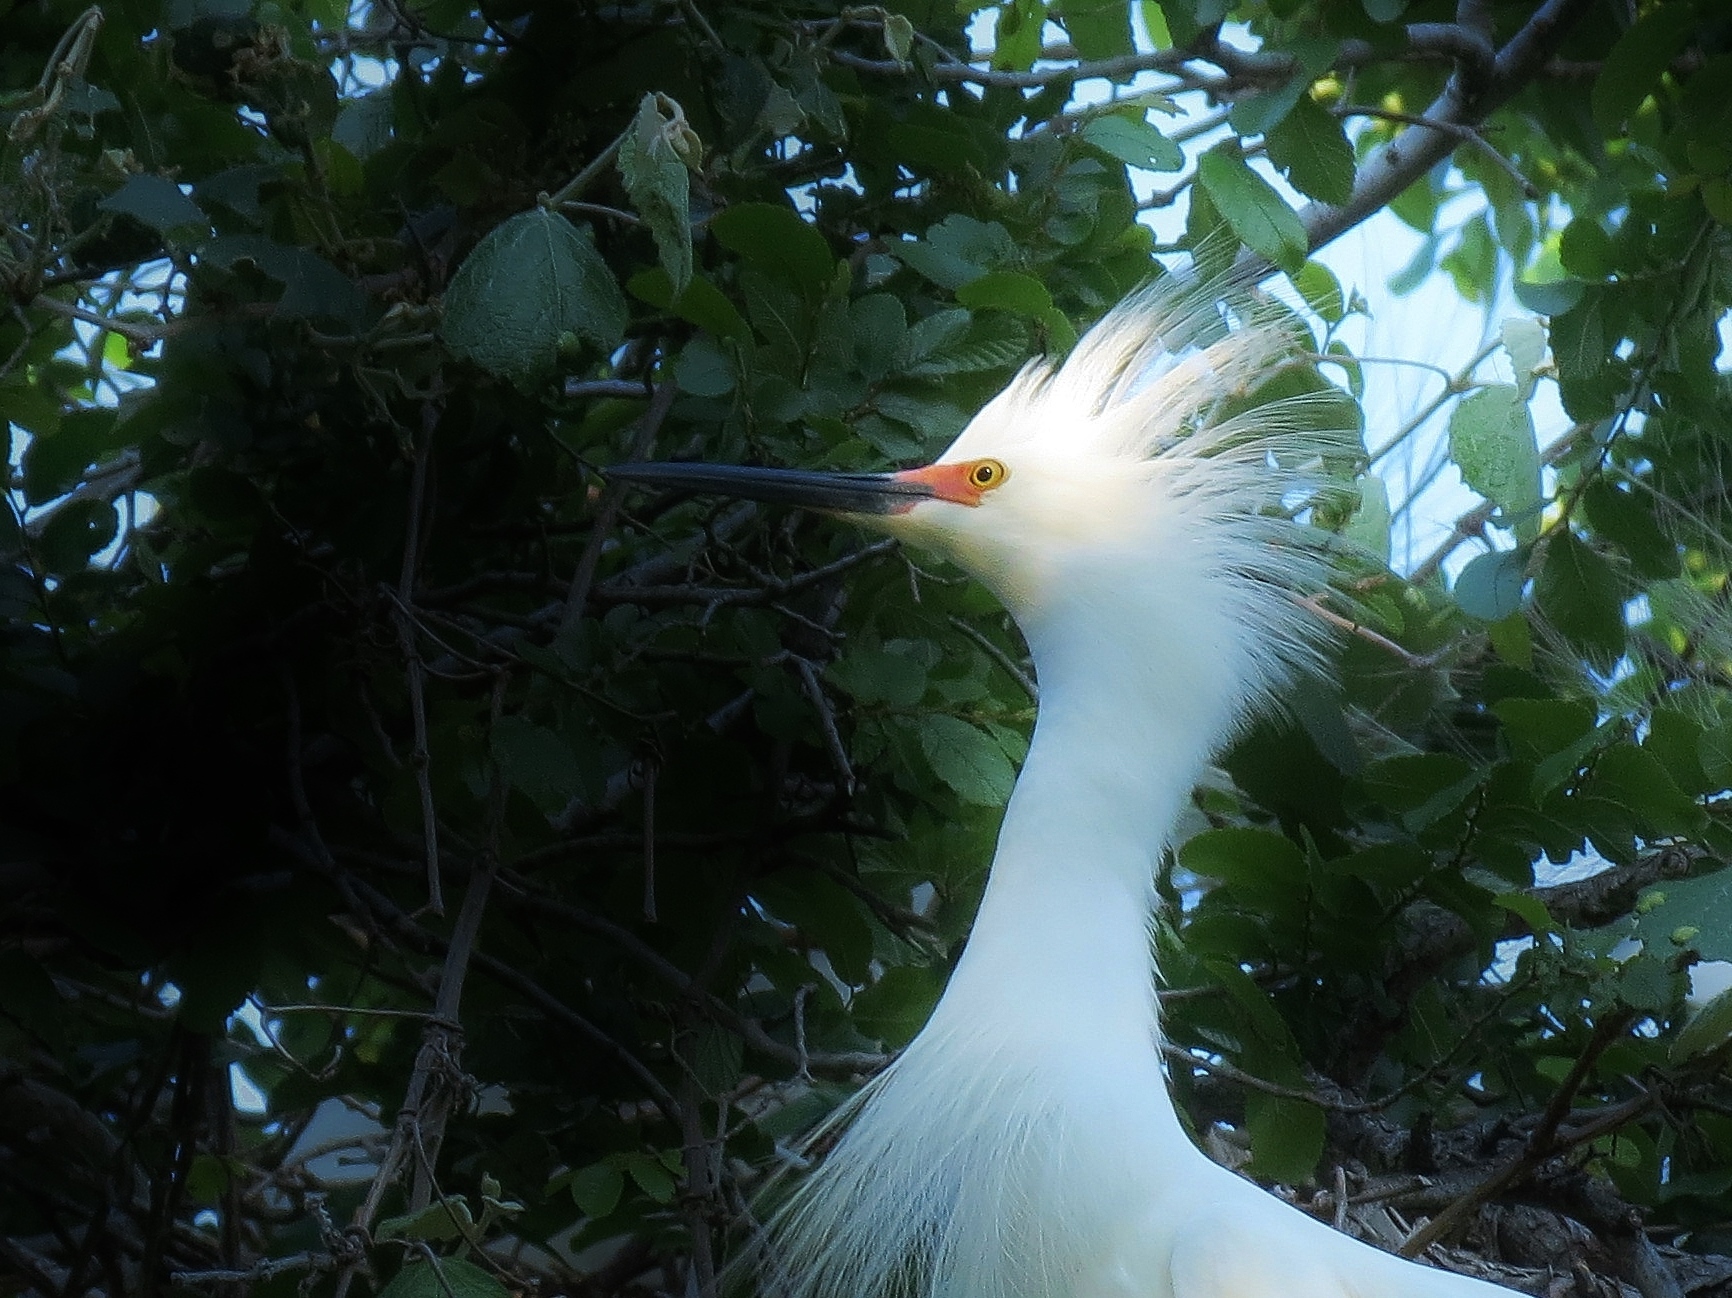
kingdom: Animalia
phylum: Chordata
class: Aves
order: Pelecaniformes
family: Ardeidae
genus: Egretta
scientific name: Egretta thula
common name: Snowy egret
